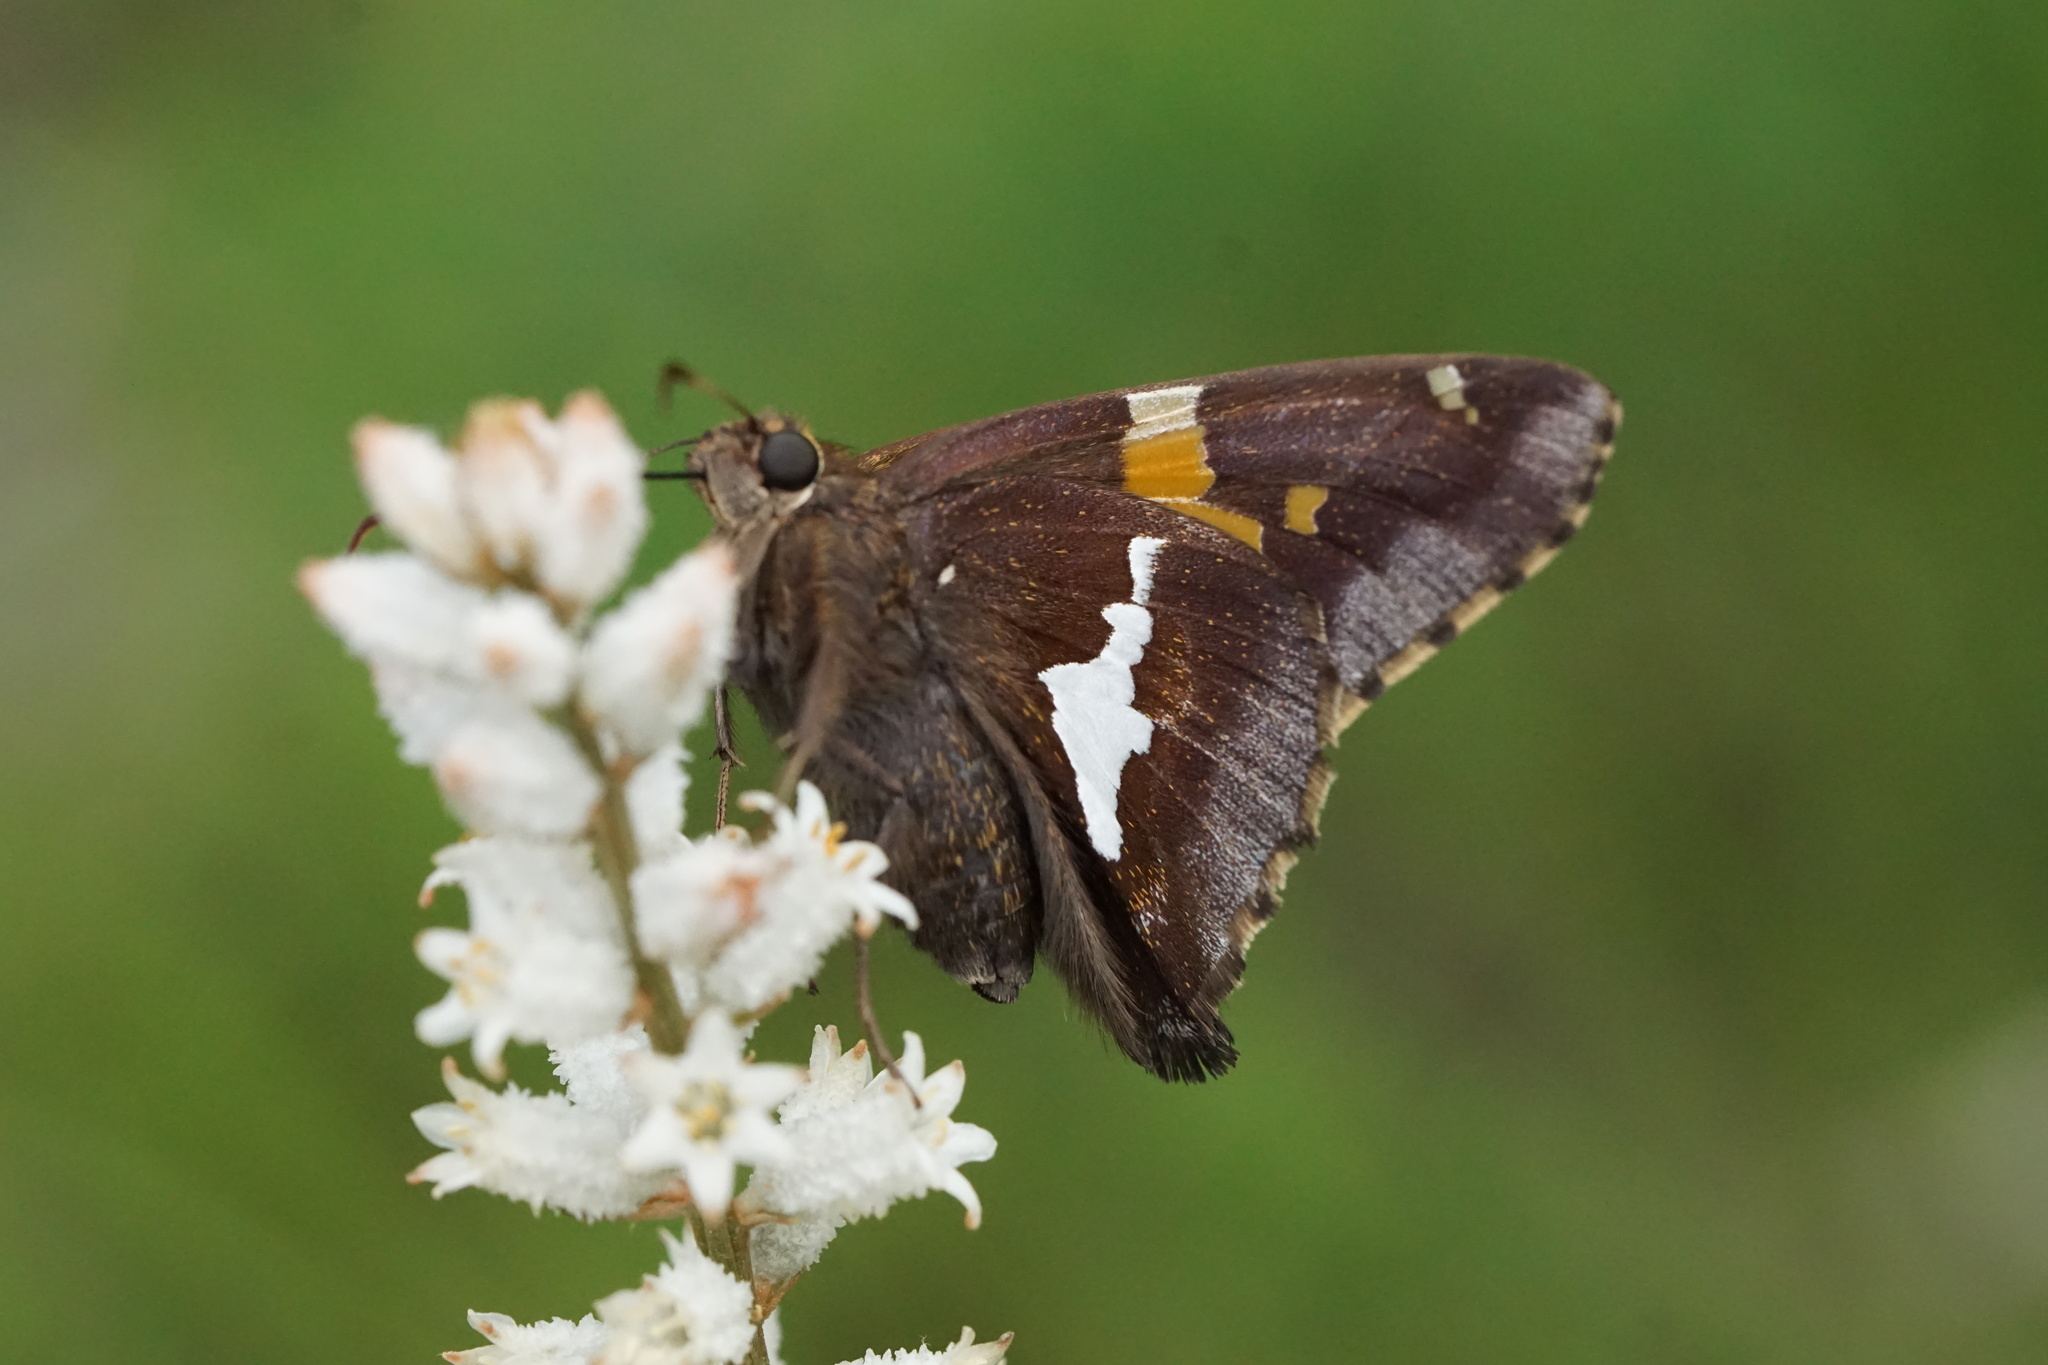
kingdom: Animalia
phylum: Arthropoda
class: Insecta
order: Lepidoptera
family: Hesperiidae
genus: Epargyreus
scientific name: Epargyreus clarus
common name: Silver-spotted skipper
